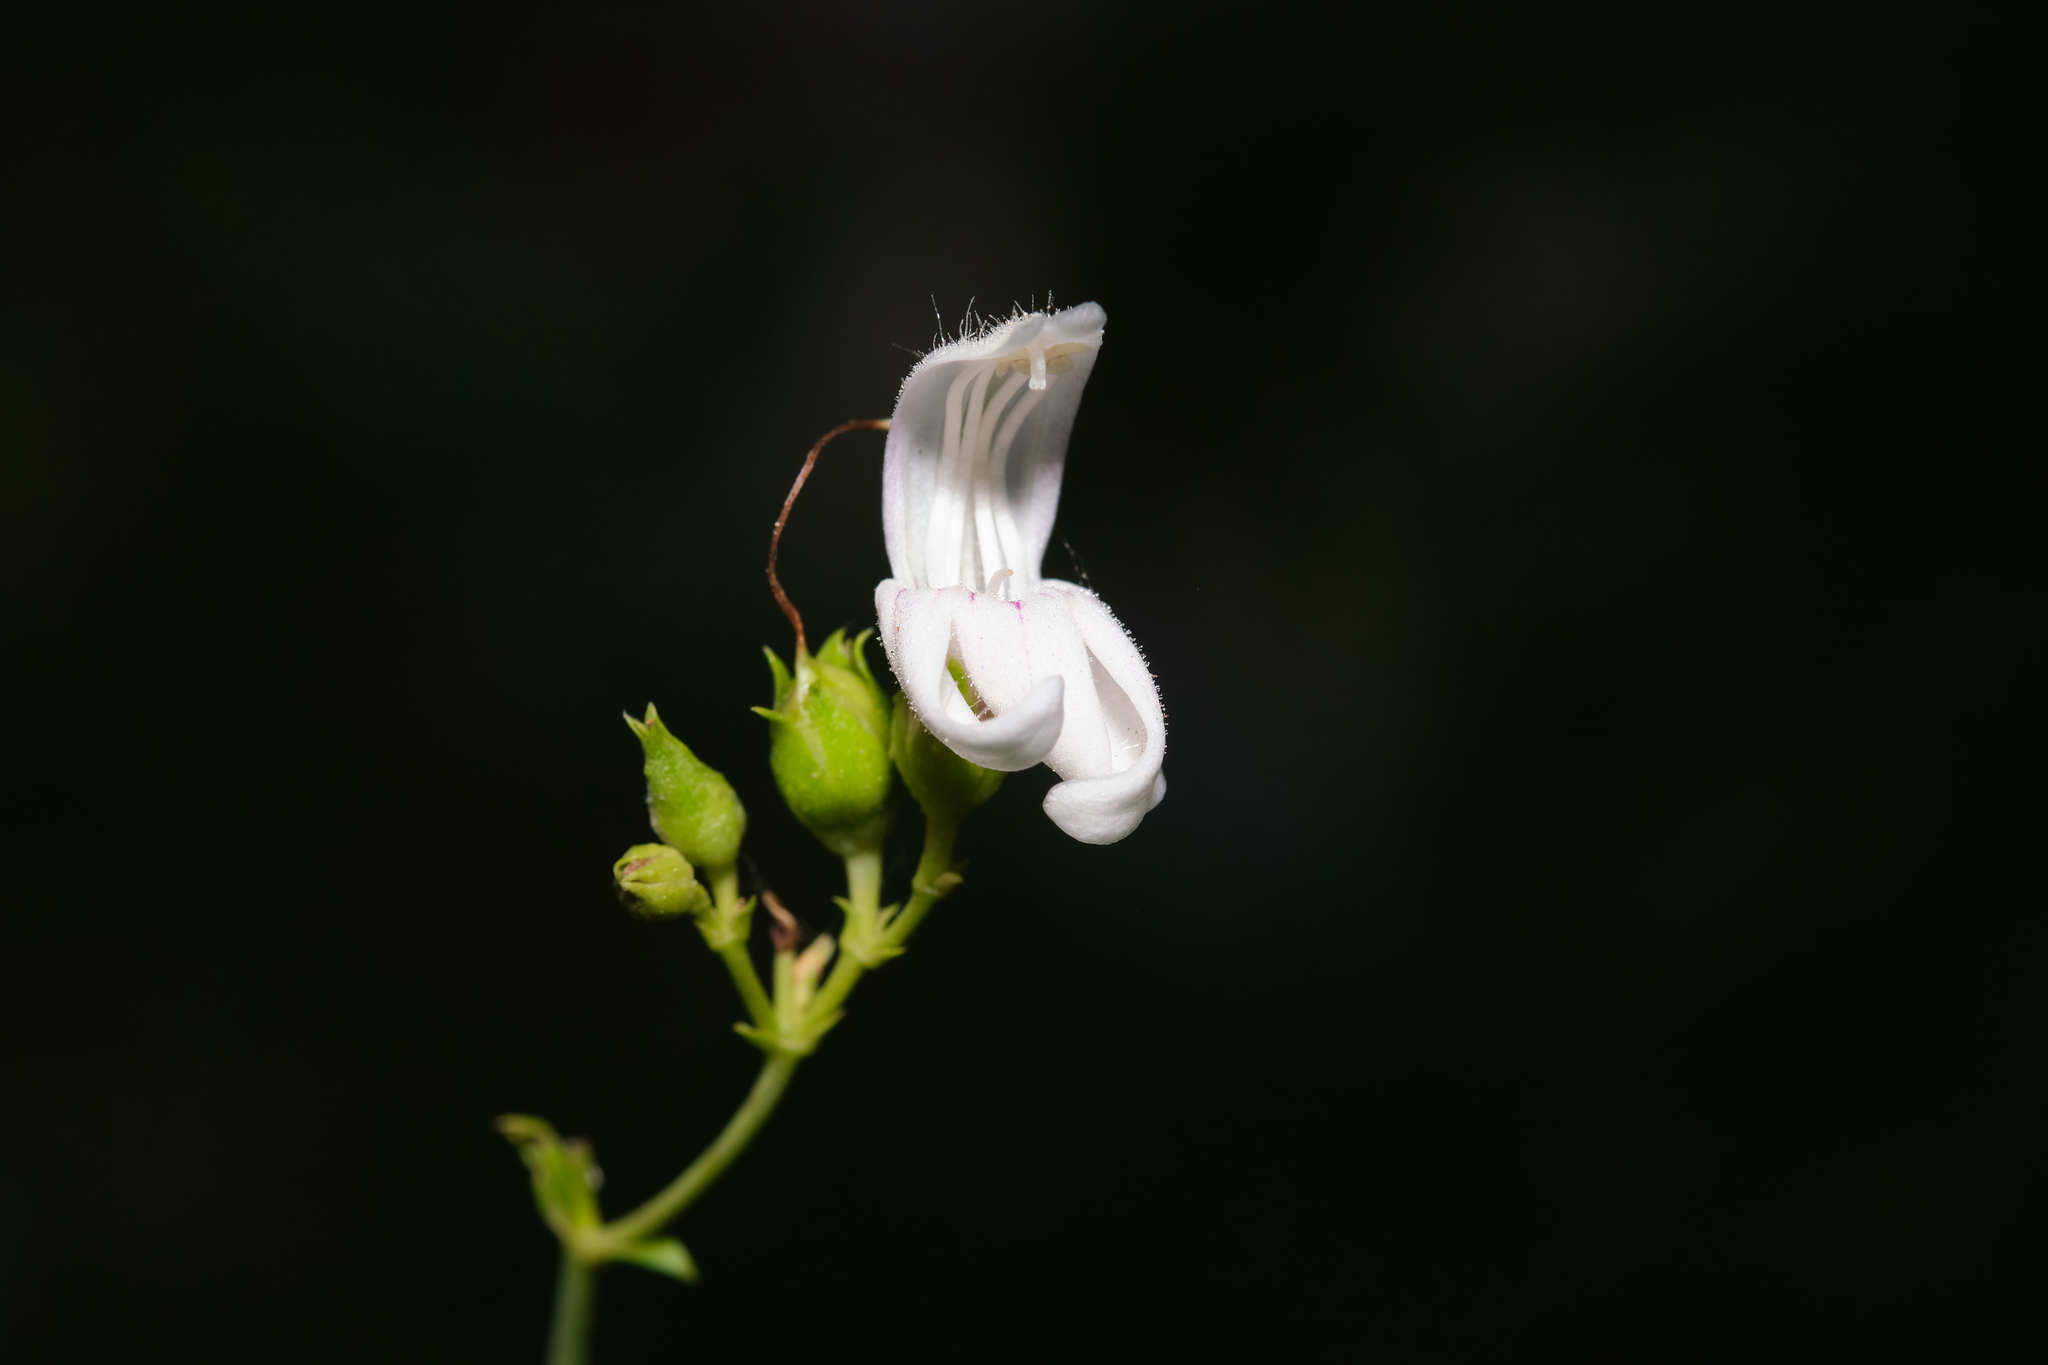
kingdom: Plantae
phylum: Tracheophyta
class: Magnoliopsida
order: Lamiales
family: Plantaginaceae
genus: Keckiella
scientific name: Keckiella breviflora
